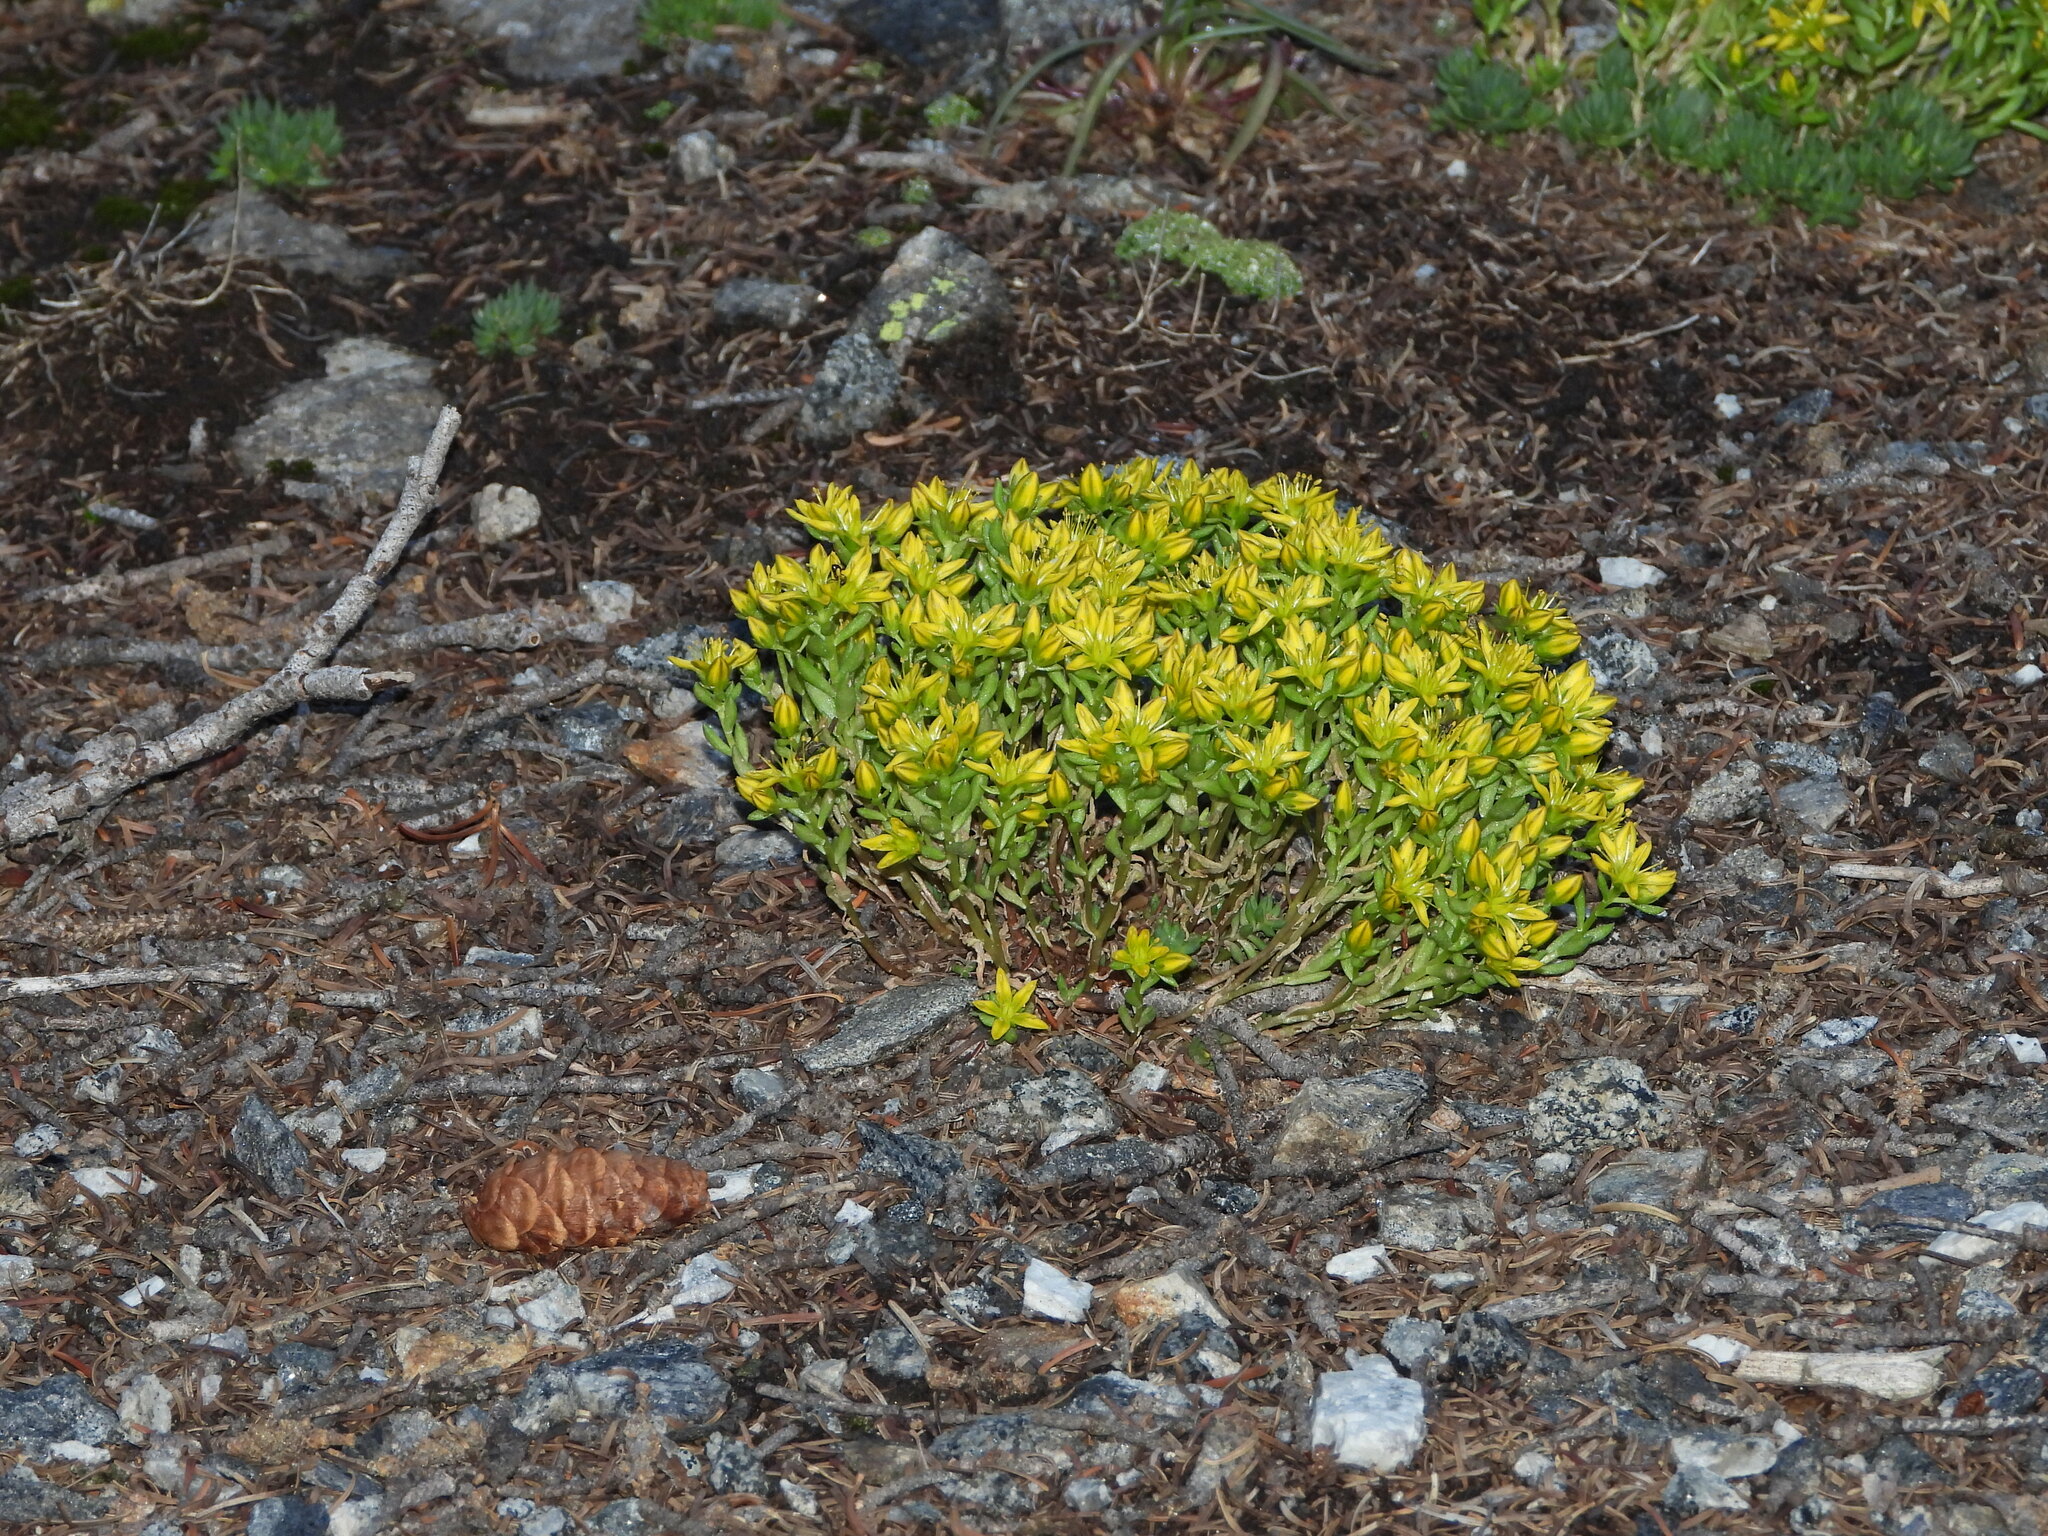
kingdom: Plantae
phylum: Tracheophyta
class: Magnoliopsida
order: Saxifragales
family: Crassulaceae
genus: Sedum
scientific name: Sedum lanceolatum
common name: Common stonecrop
